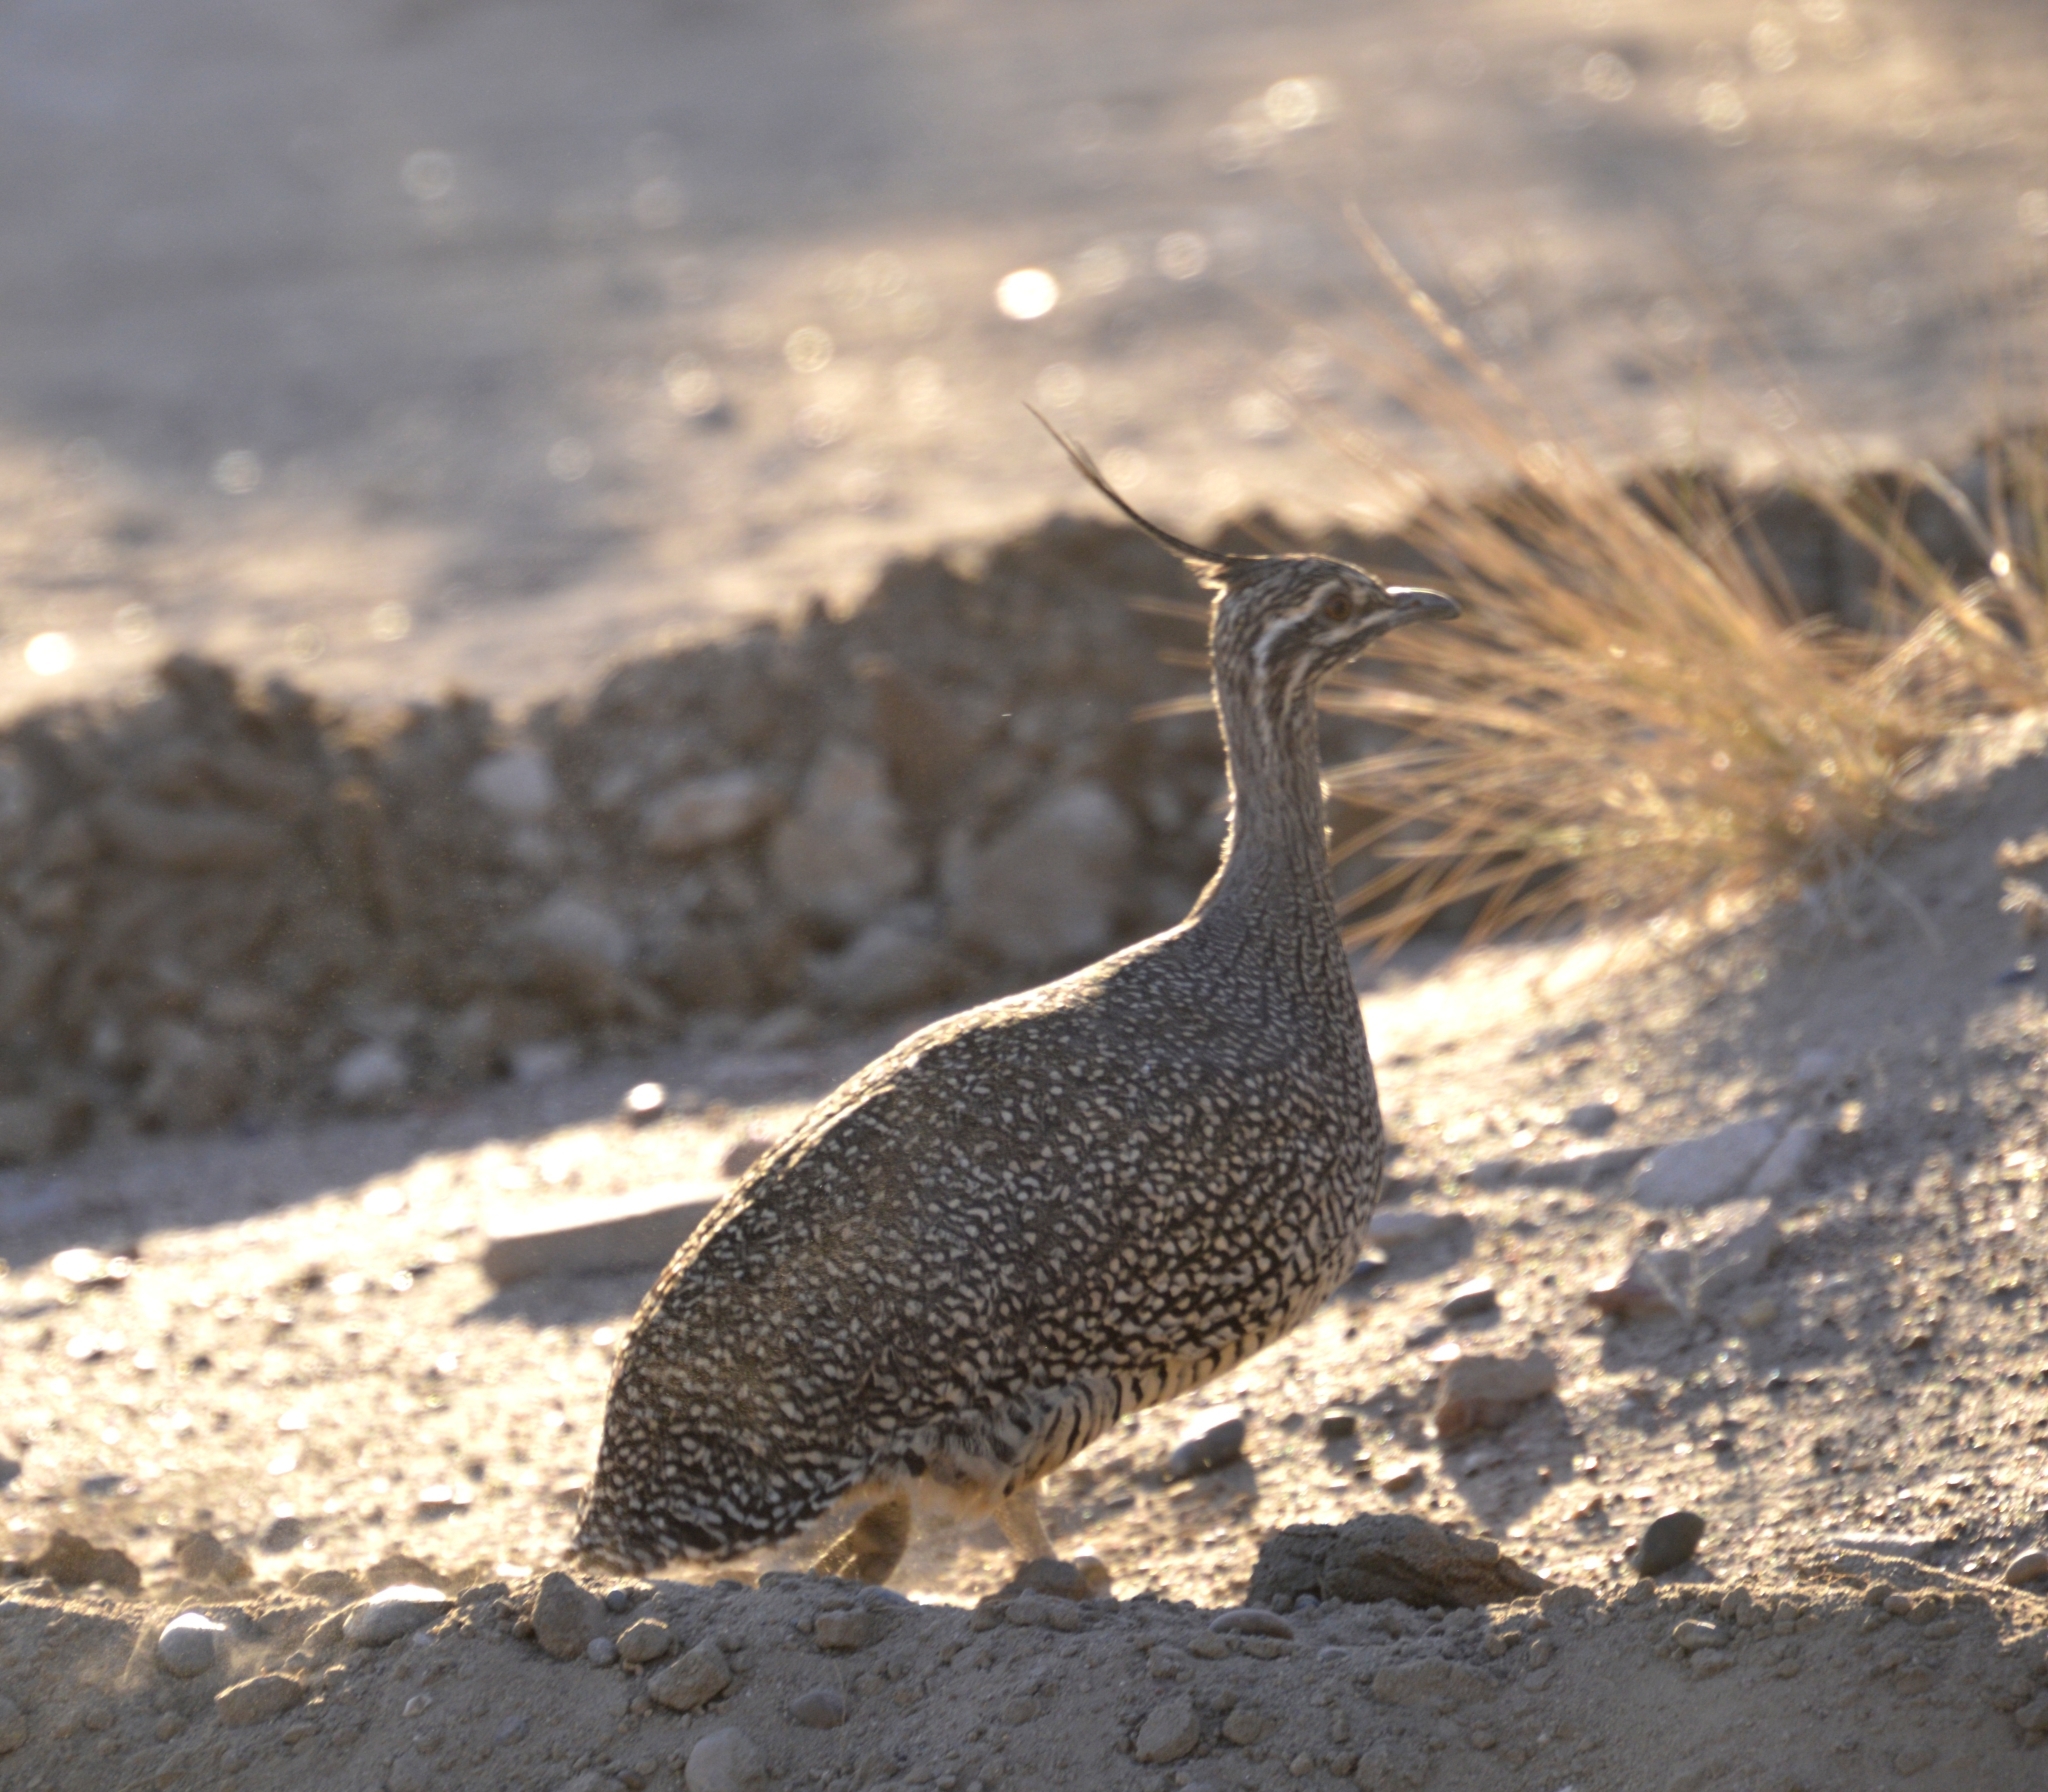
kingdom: Animalia
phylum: Chordata
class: Aves
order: Tinamiformes
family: Tinamidae
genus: Eudromia
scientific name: Eudromia elegans
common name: Elegant crested tinamou
